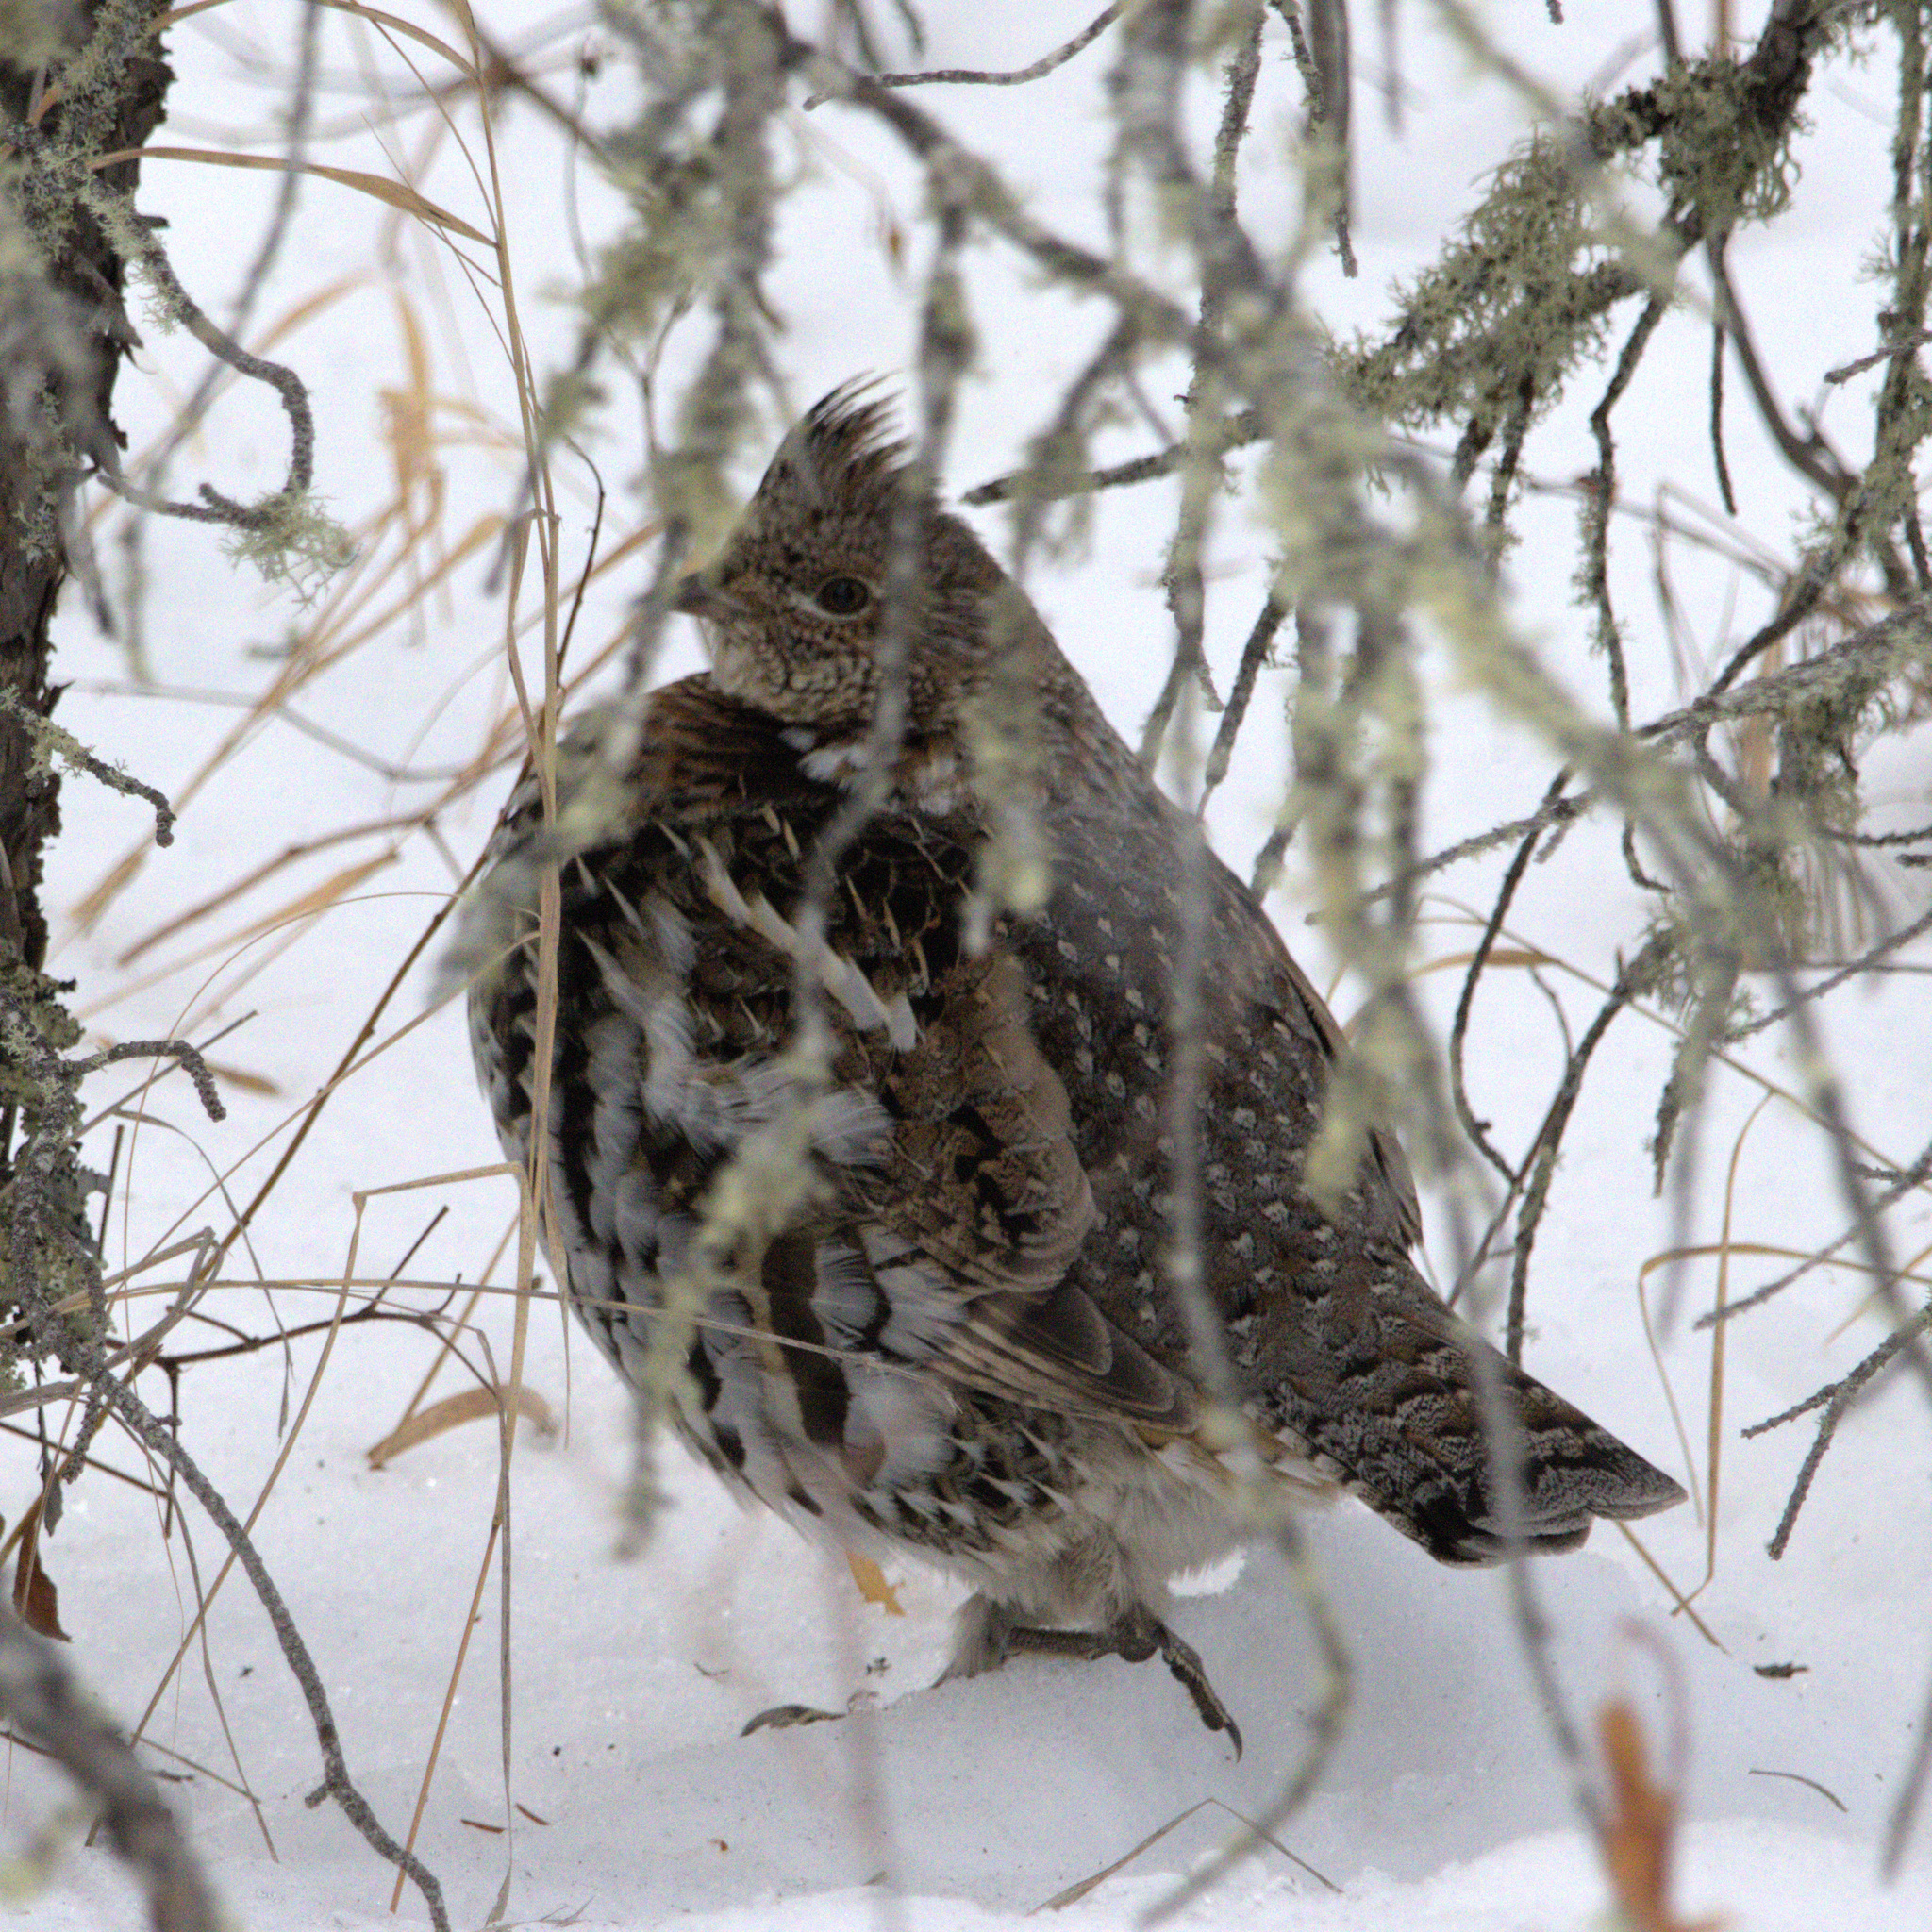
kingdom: Animalia
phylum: Chordata
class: Aves
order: Galliformes
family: Phasianidae
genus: Bonasa
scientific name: Bonasa umbellus
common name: Ruffed grouse
